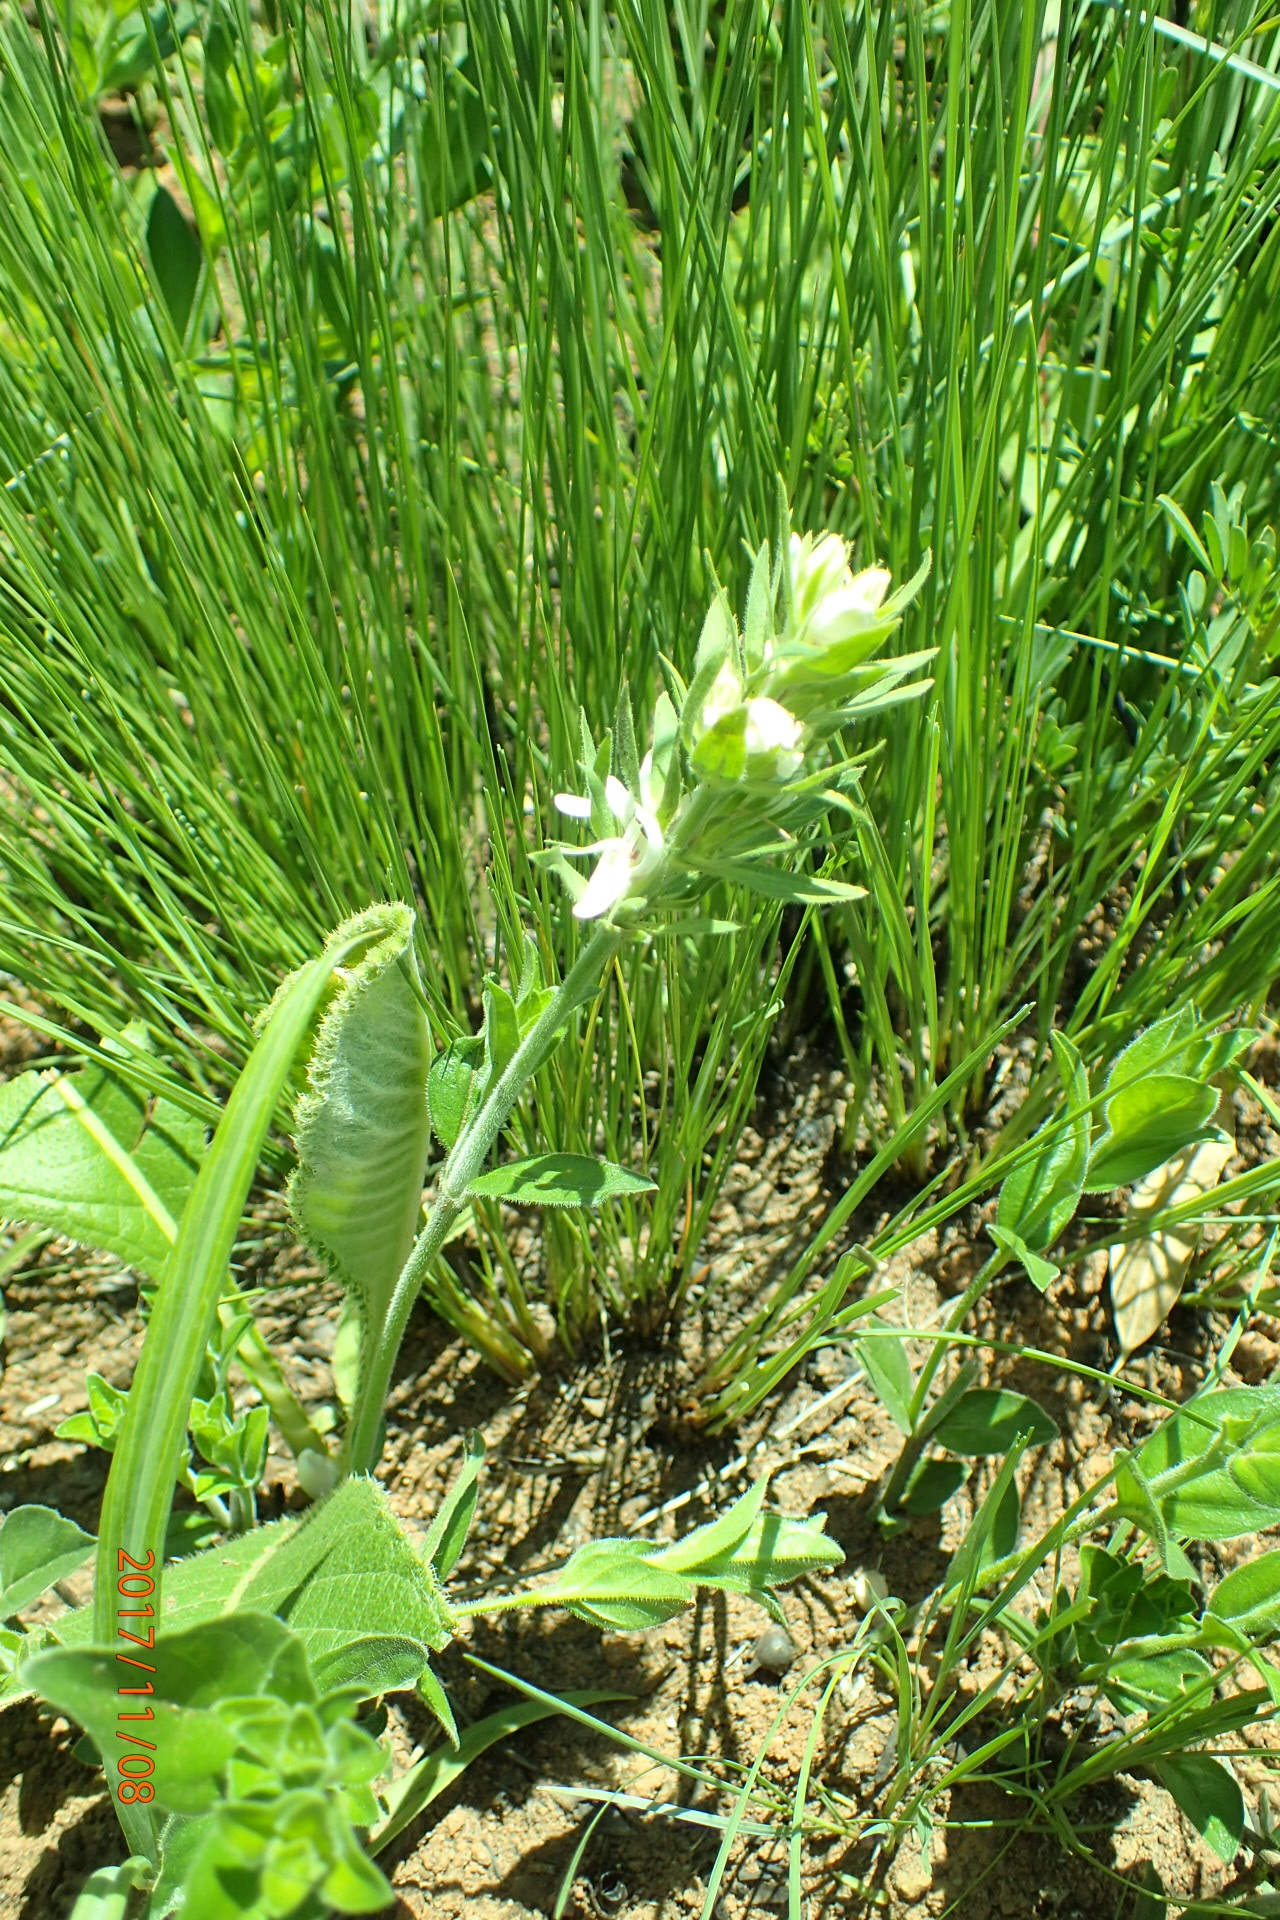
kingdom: Plantae
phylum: Tracheophyta
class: Magnoliopsida
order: Lamiales
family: Acanthaceae
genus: Justicia
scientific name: Justicia andromeda
